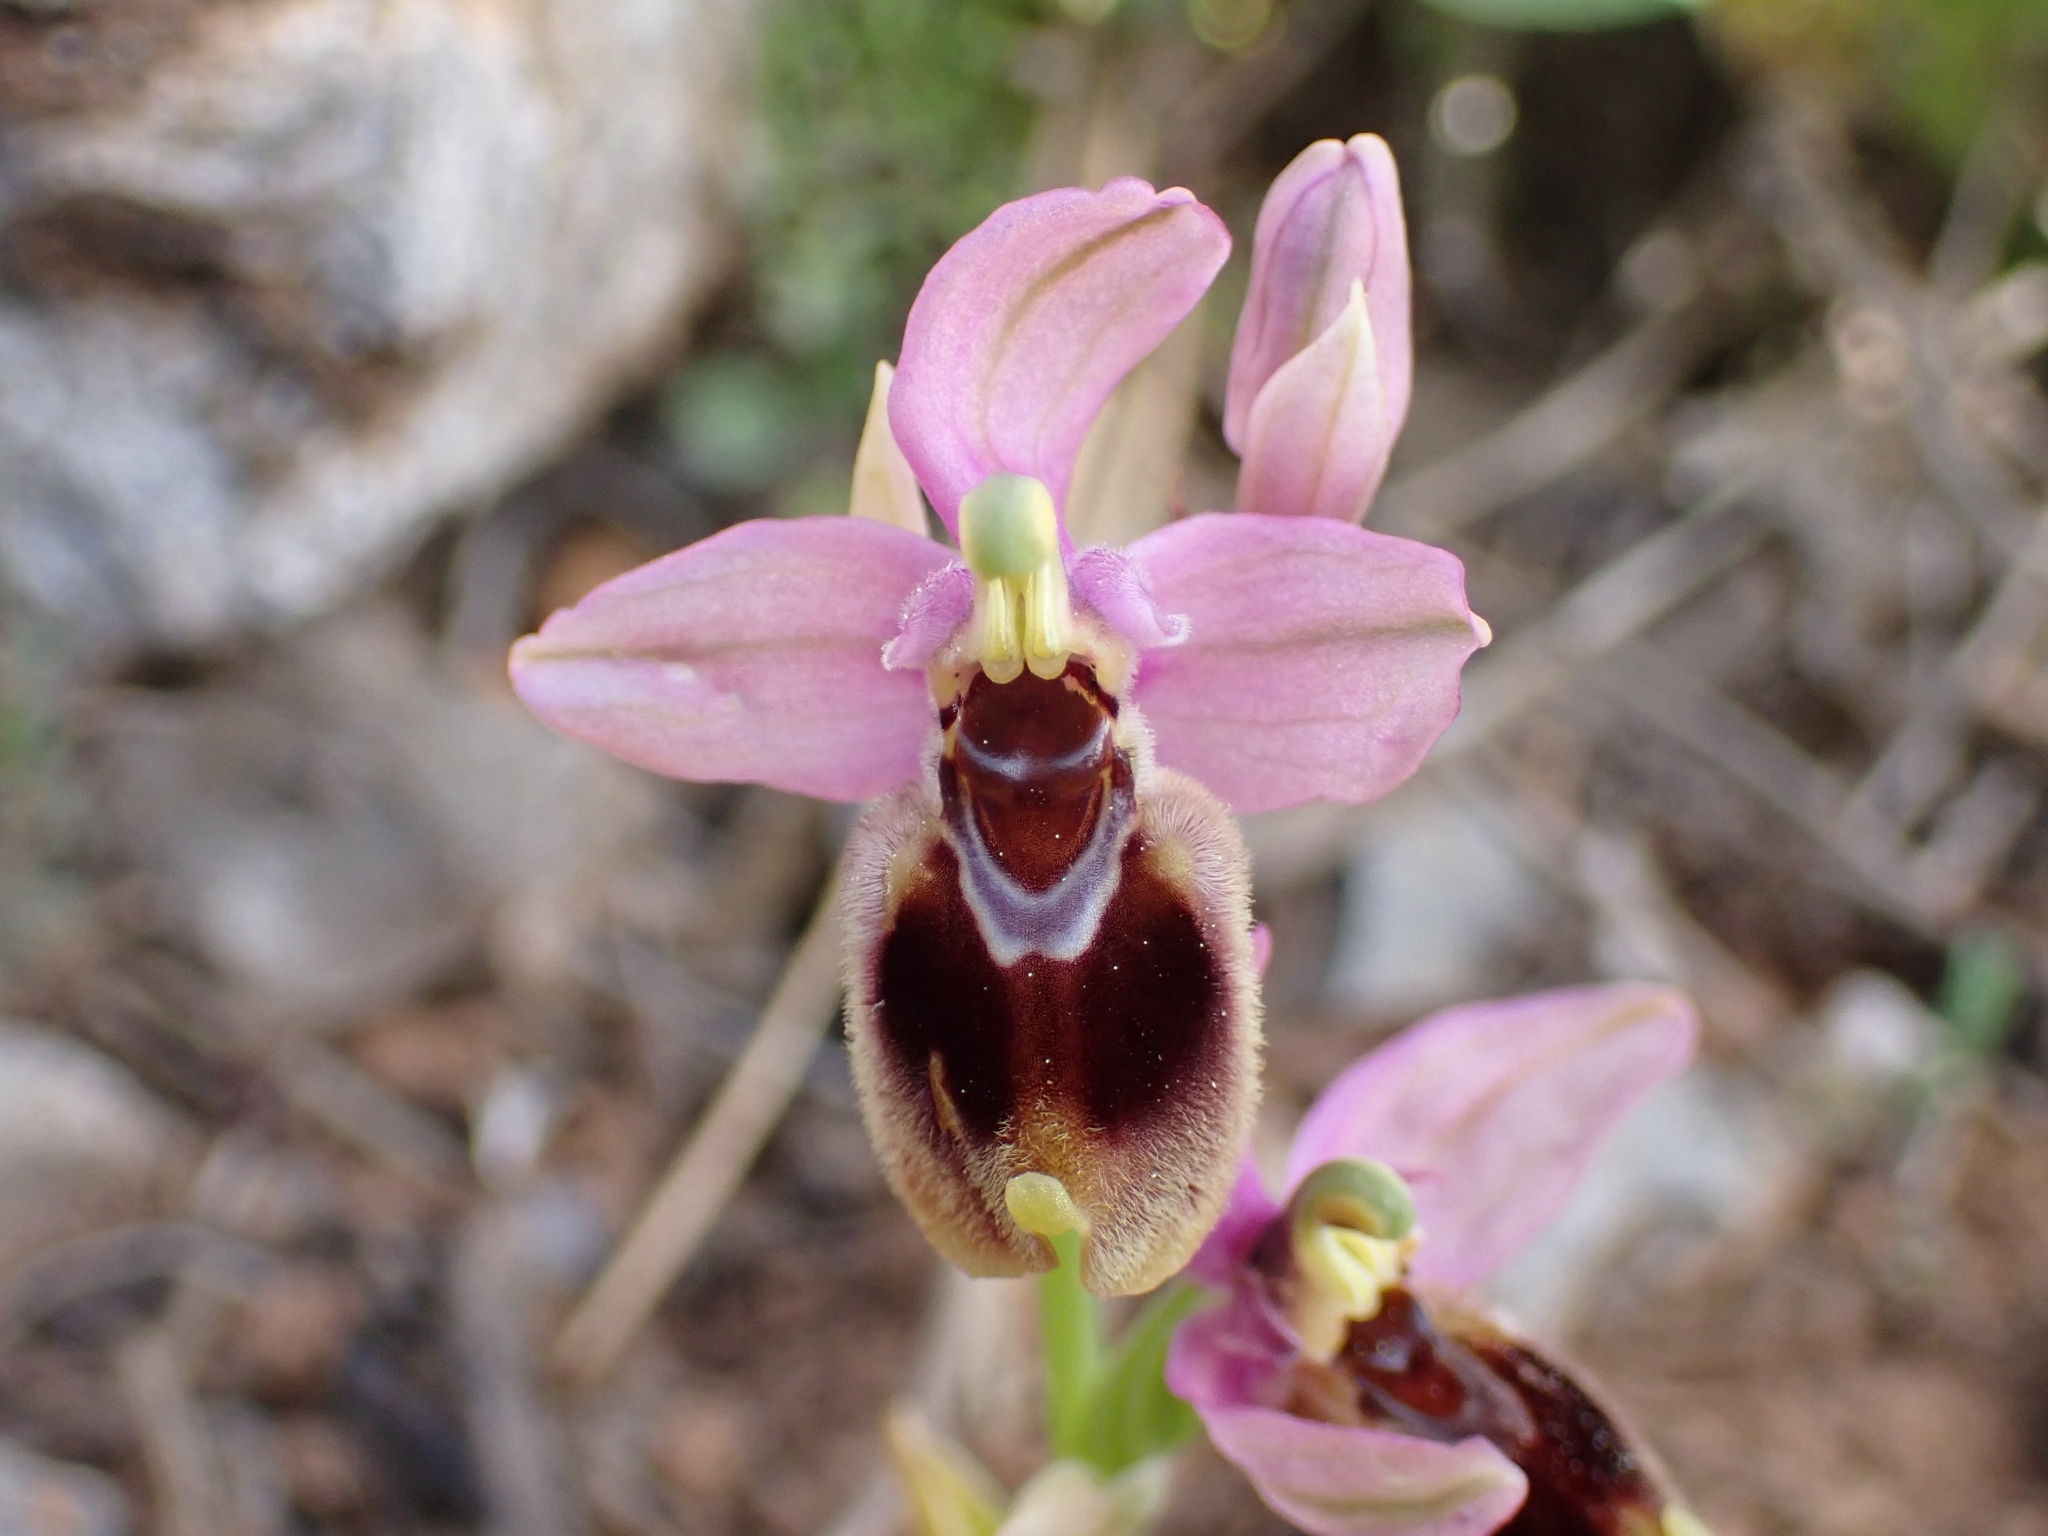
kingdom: Plantae
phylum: Tracheophyta
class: Liliopsida
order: Asparagales
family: Orchidaceae
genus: Ophrys
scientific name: Ophrys tenthredinifera
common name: Sawfly orchid
